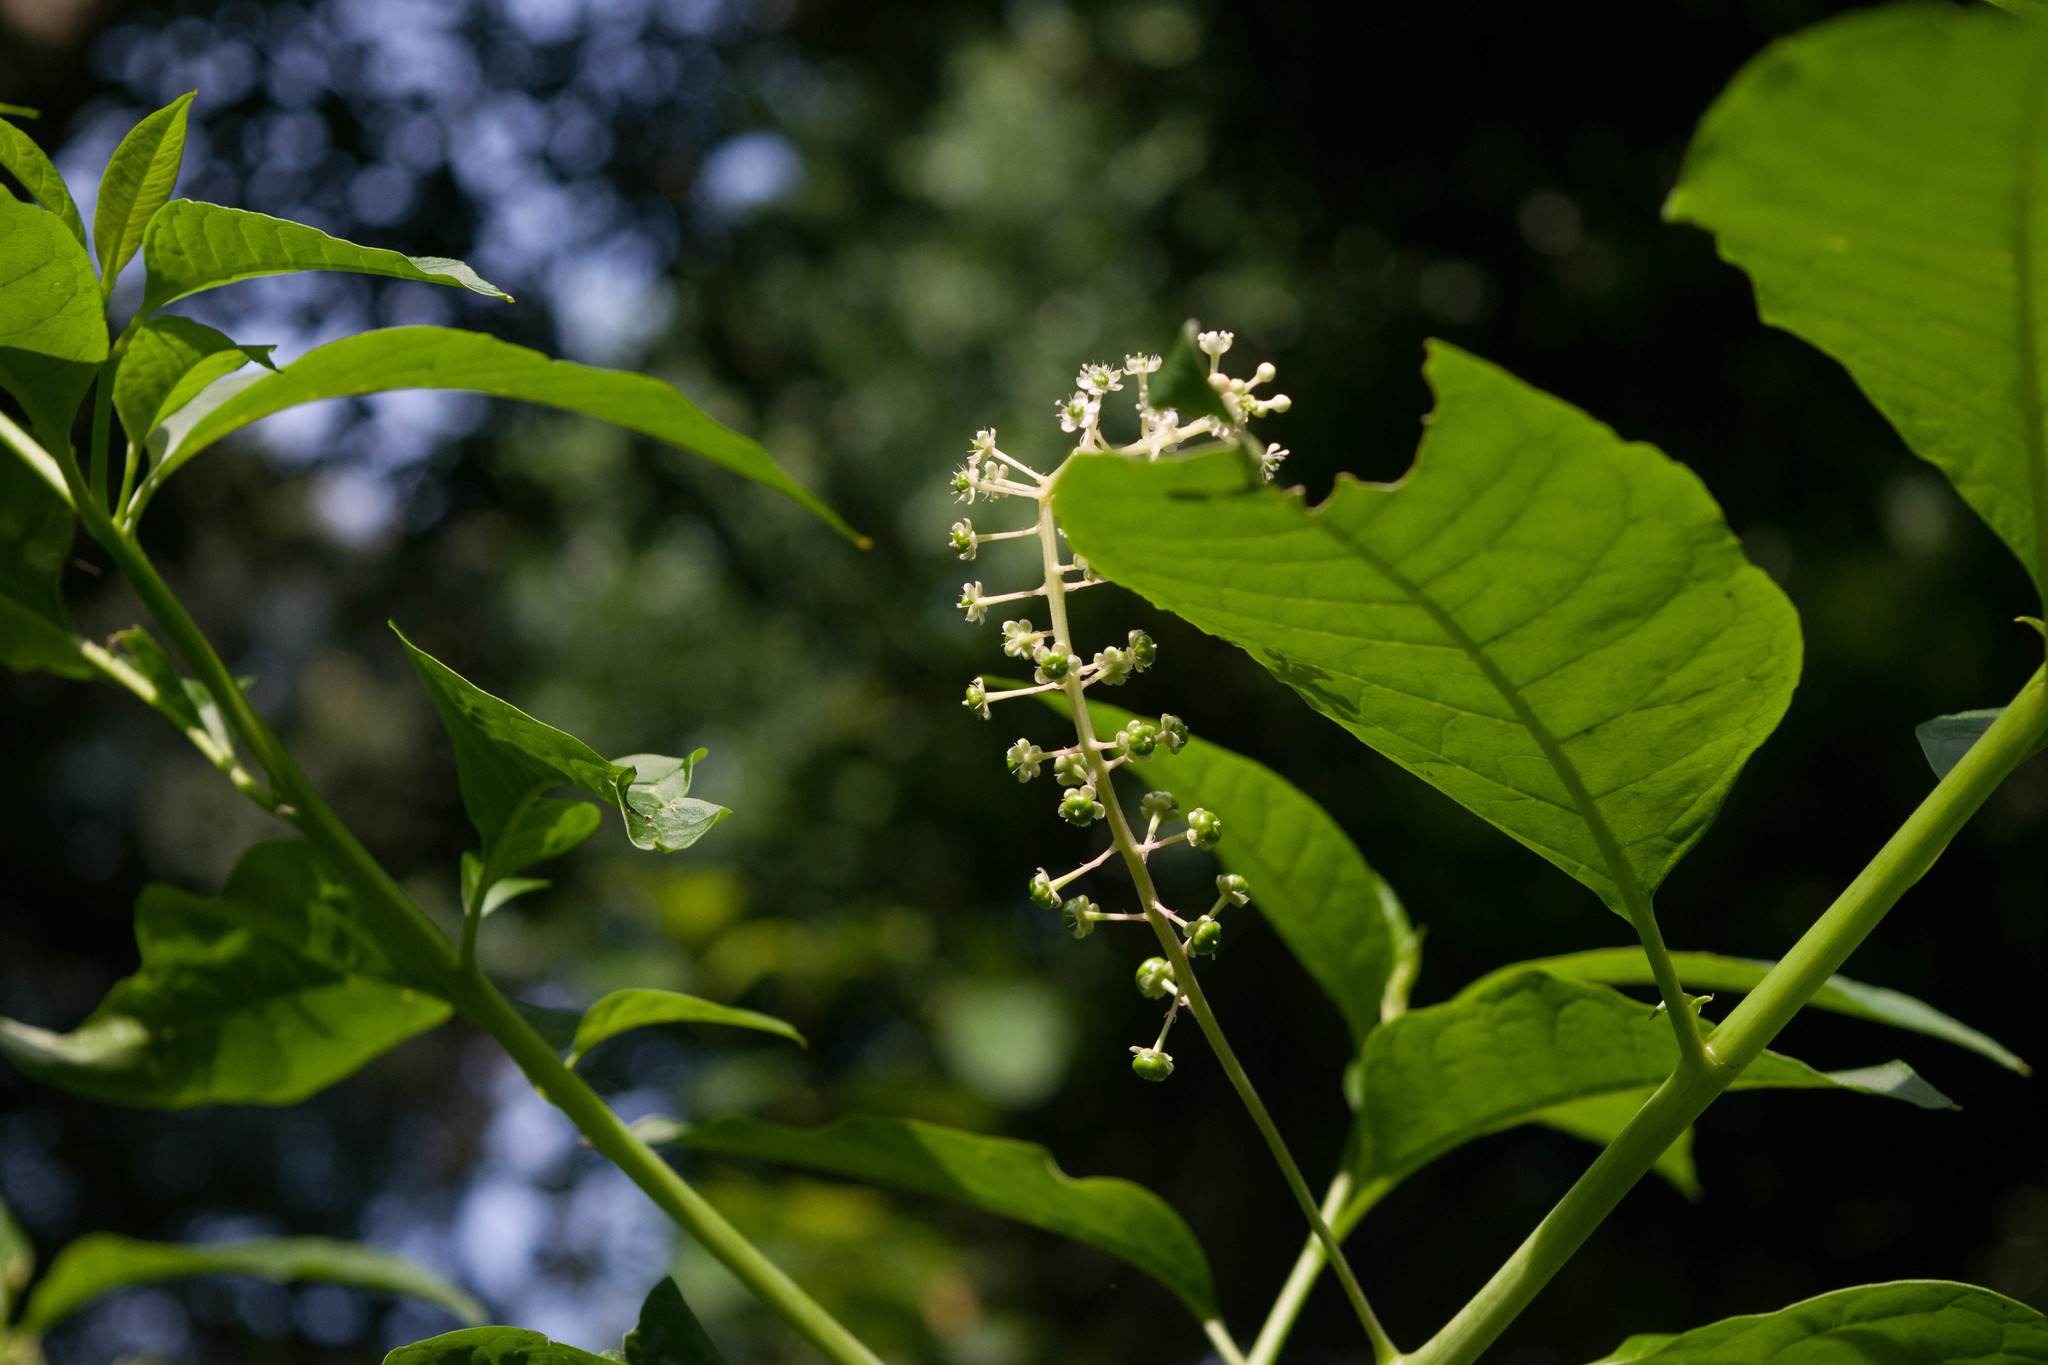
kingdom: Plantae
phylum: Tracheophyta
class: Magnoliopsida
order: Caryophyllales
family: Phytolaccaceae
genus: Phytolacca
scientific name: Phytolacca americana
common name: American pokeweed
